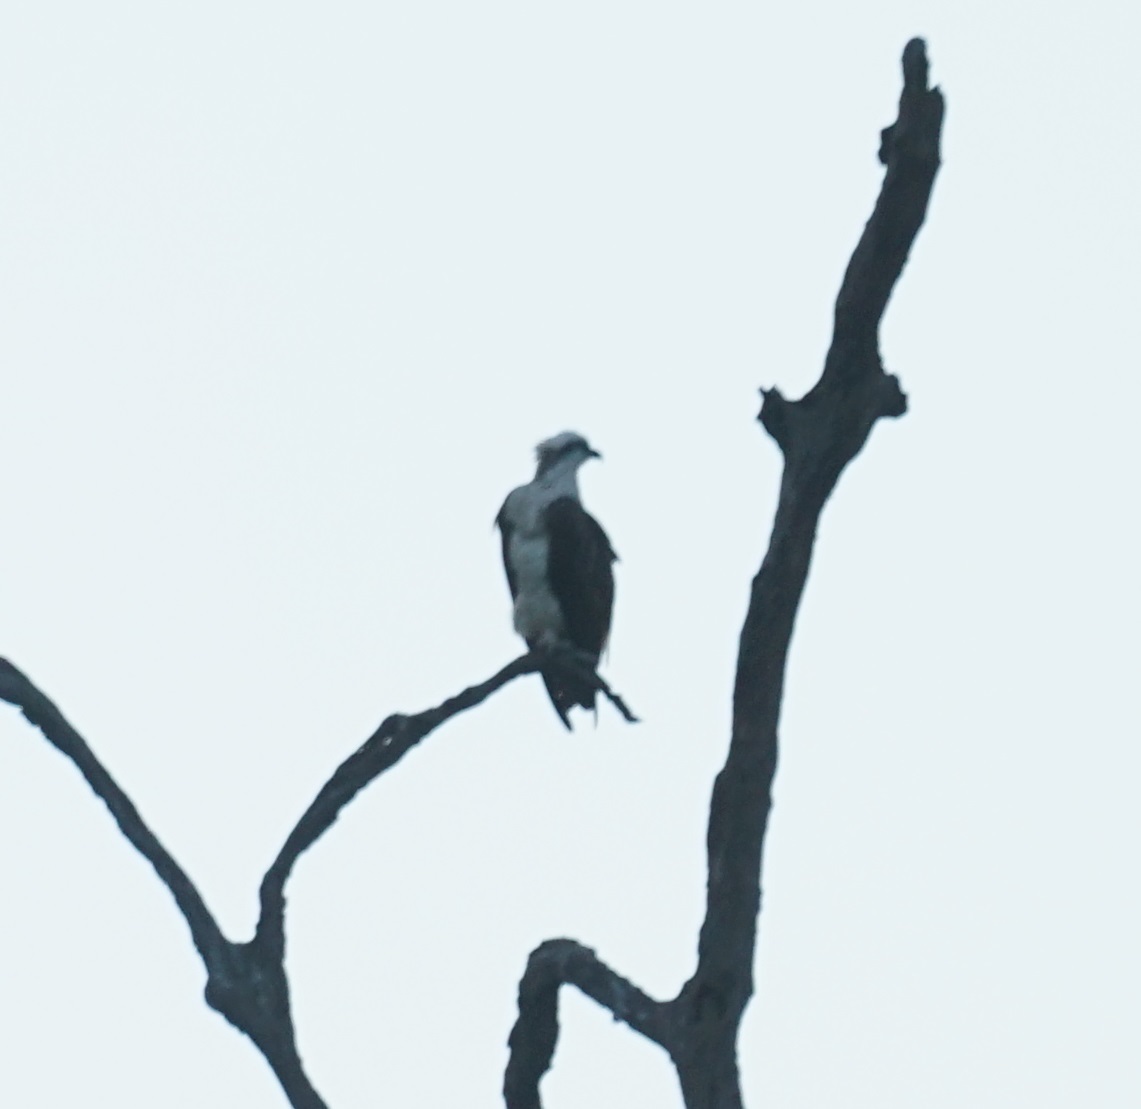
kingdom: Animalia
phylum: Chordata
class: Aves
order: Accipitriformes
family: Pandionidae
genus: Pandion
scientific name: Pandion cristatus
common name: Eastern osprey
